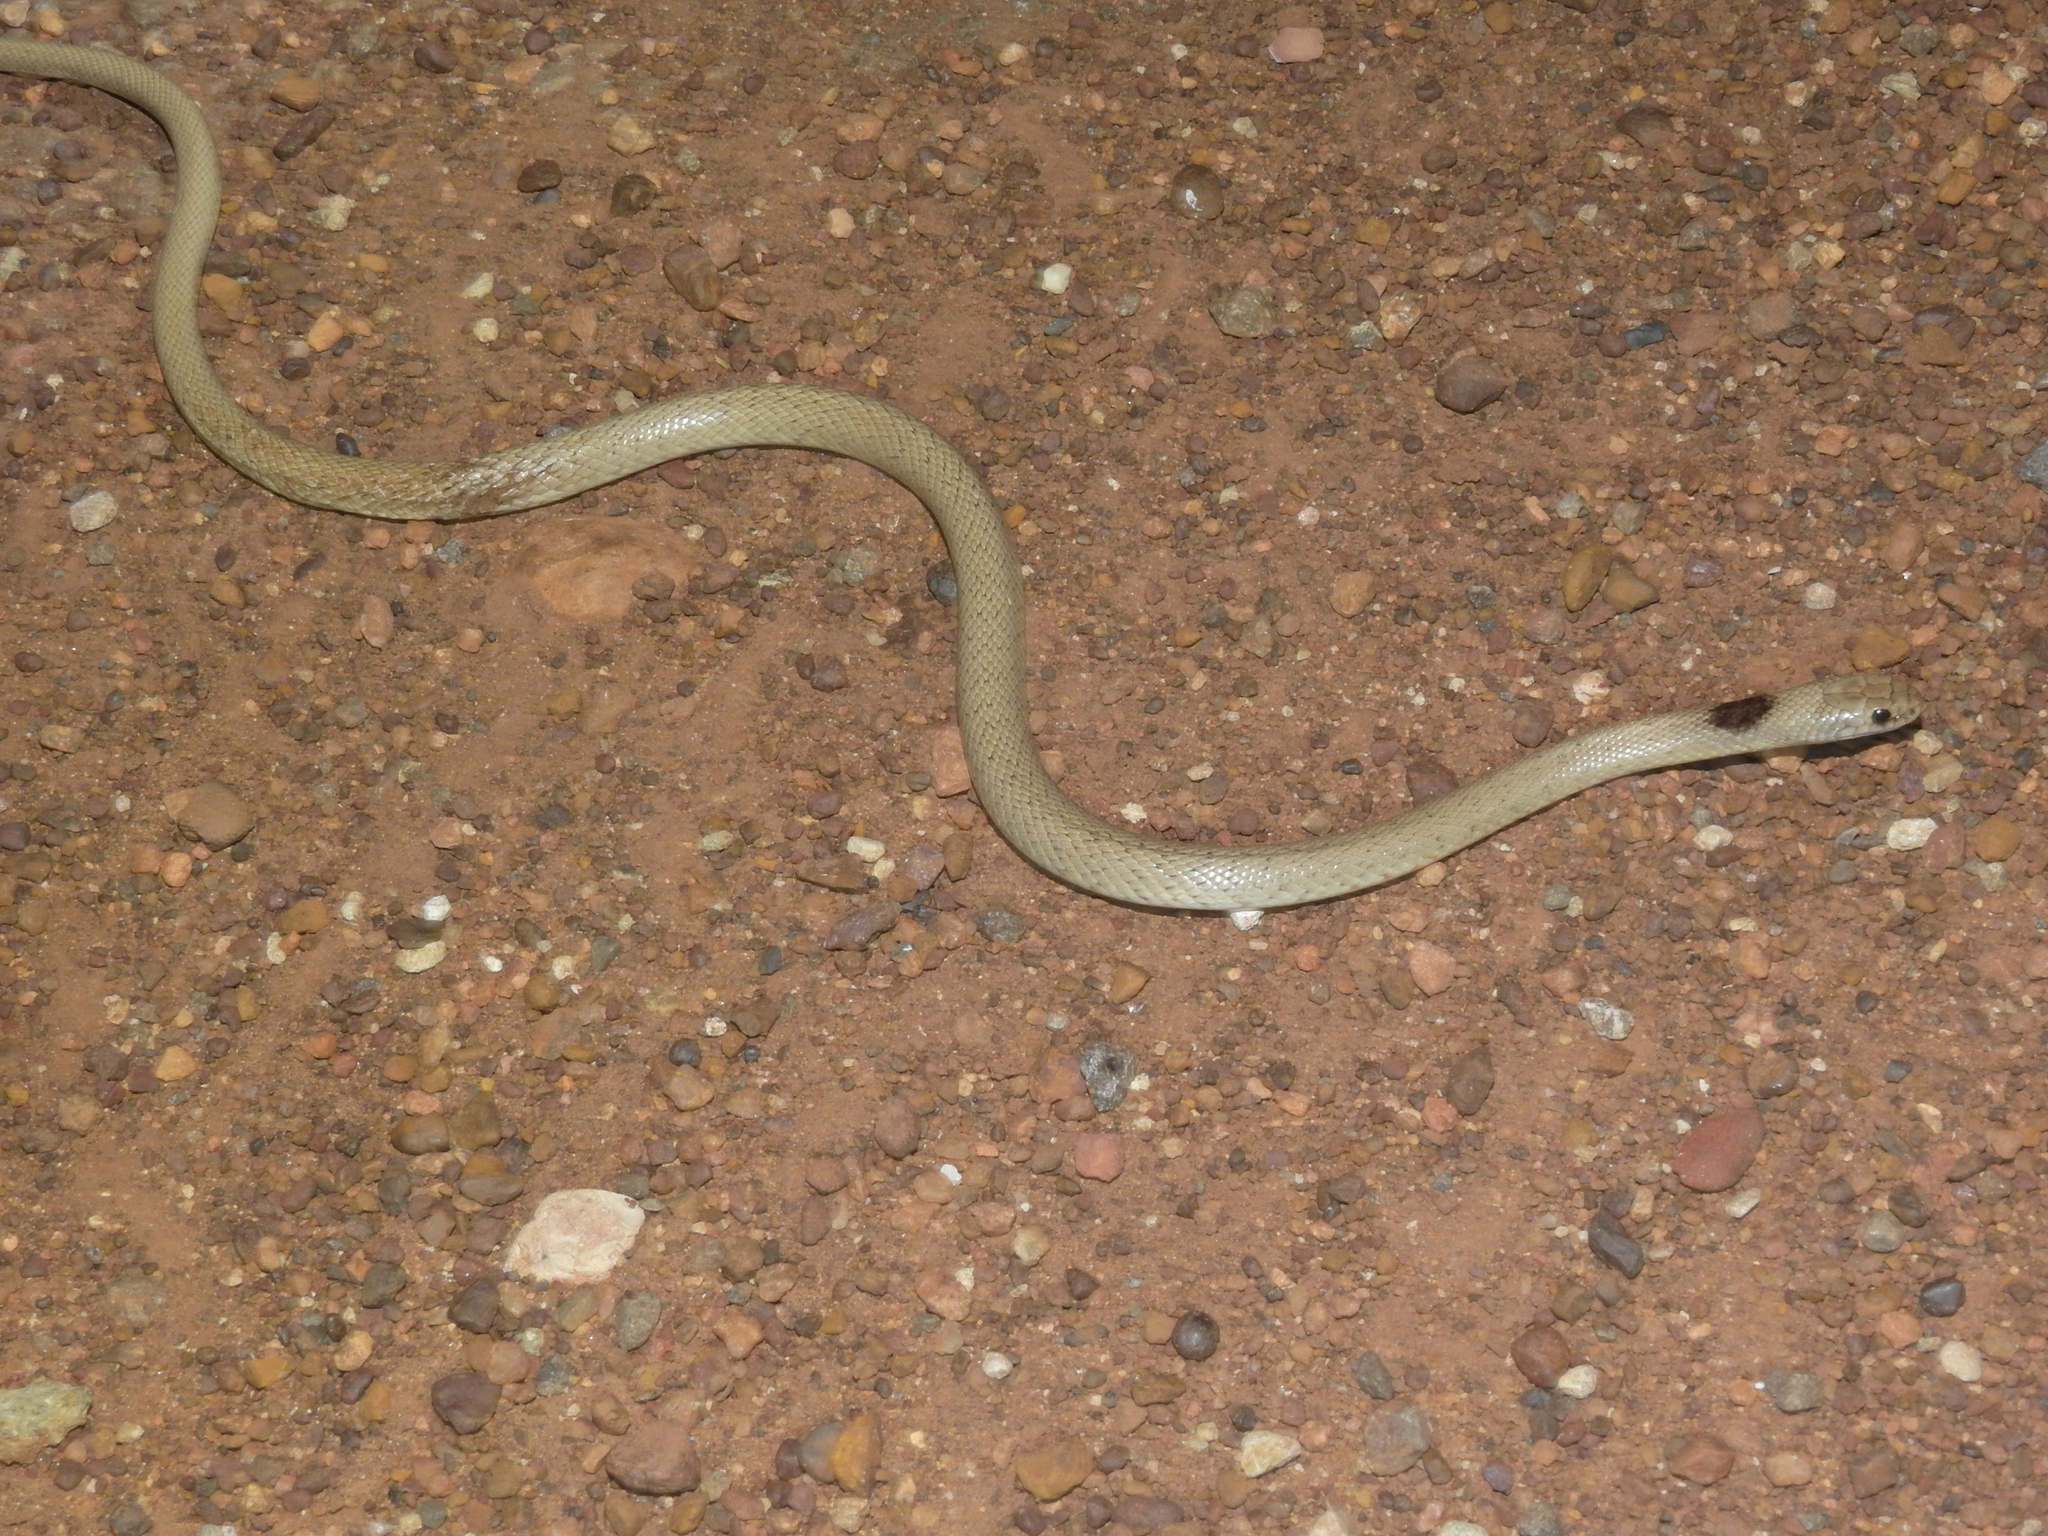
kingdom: Animalia
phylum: Chordata
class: Squamata
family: Elapidae
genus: Pseudonaja
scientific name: Pseudonaja guttata
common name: Speckled brown snake
